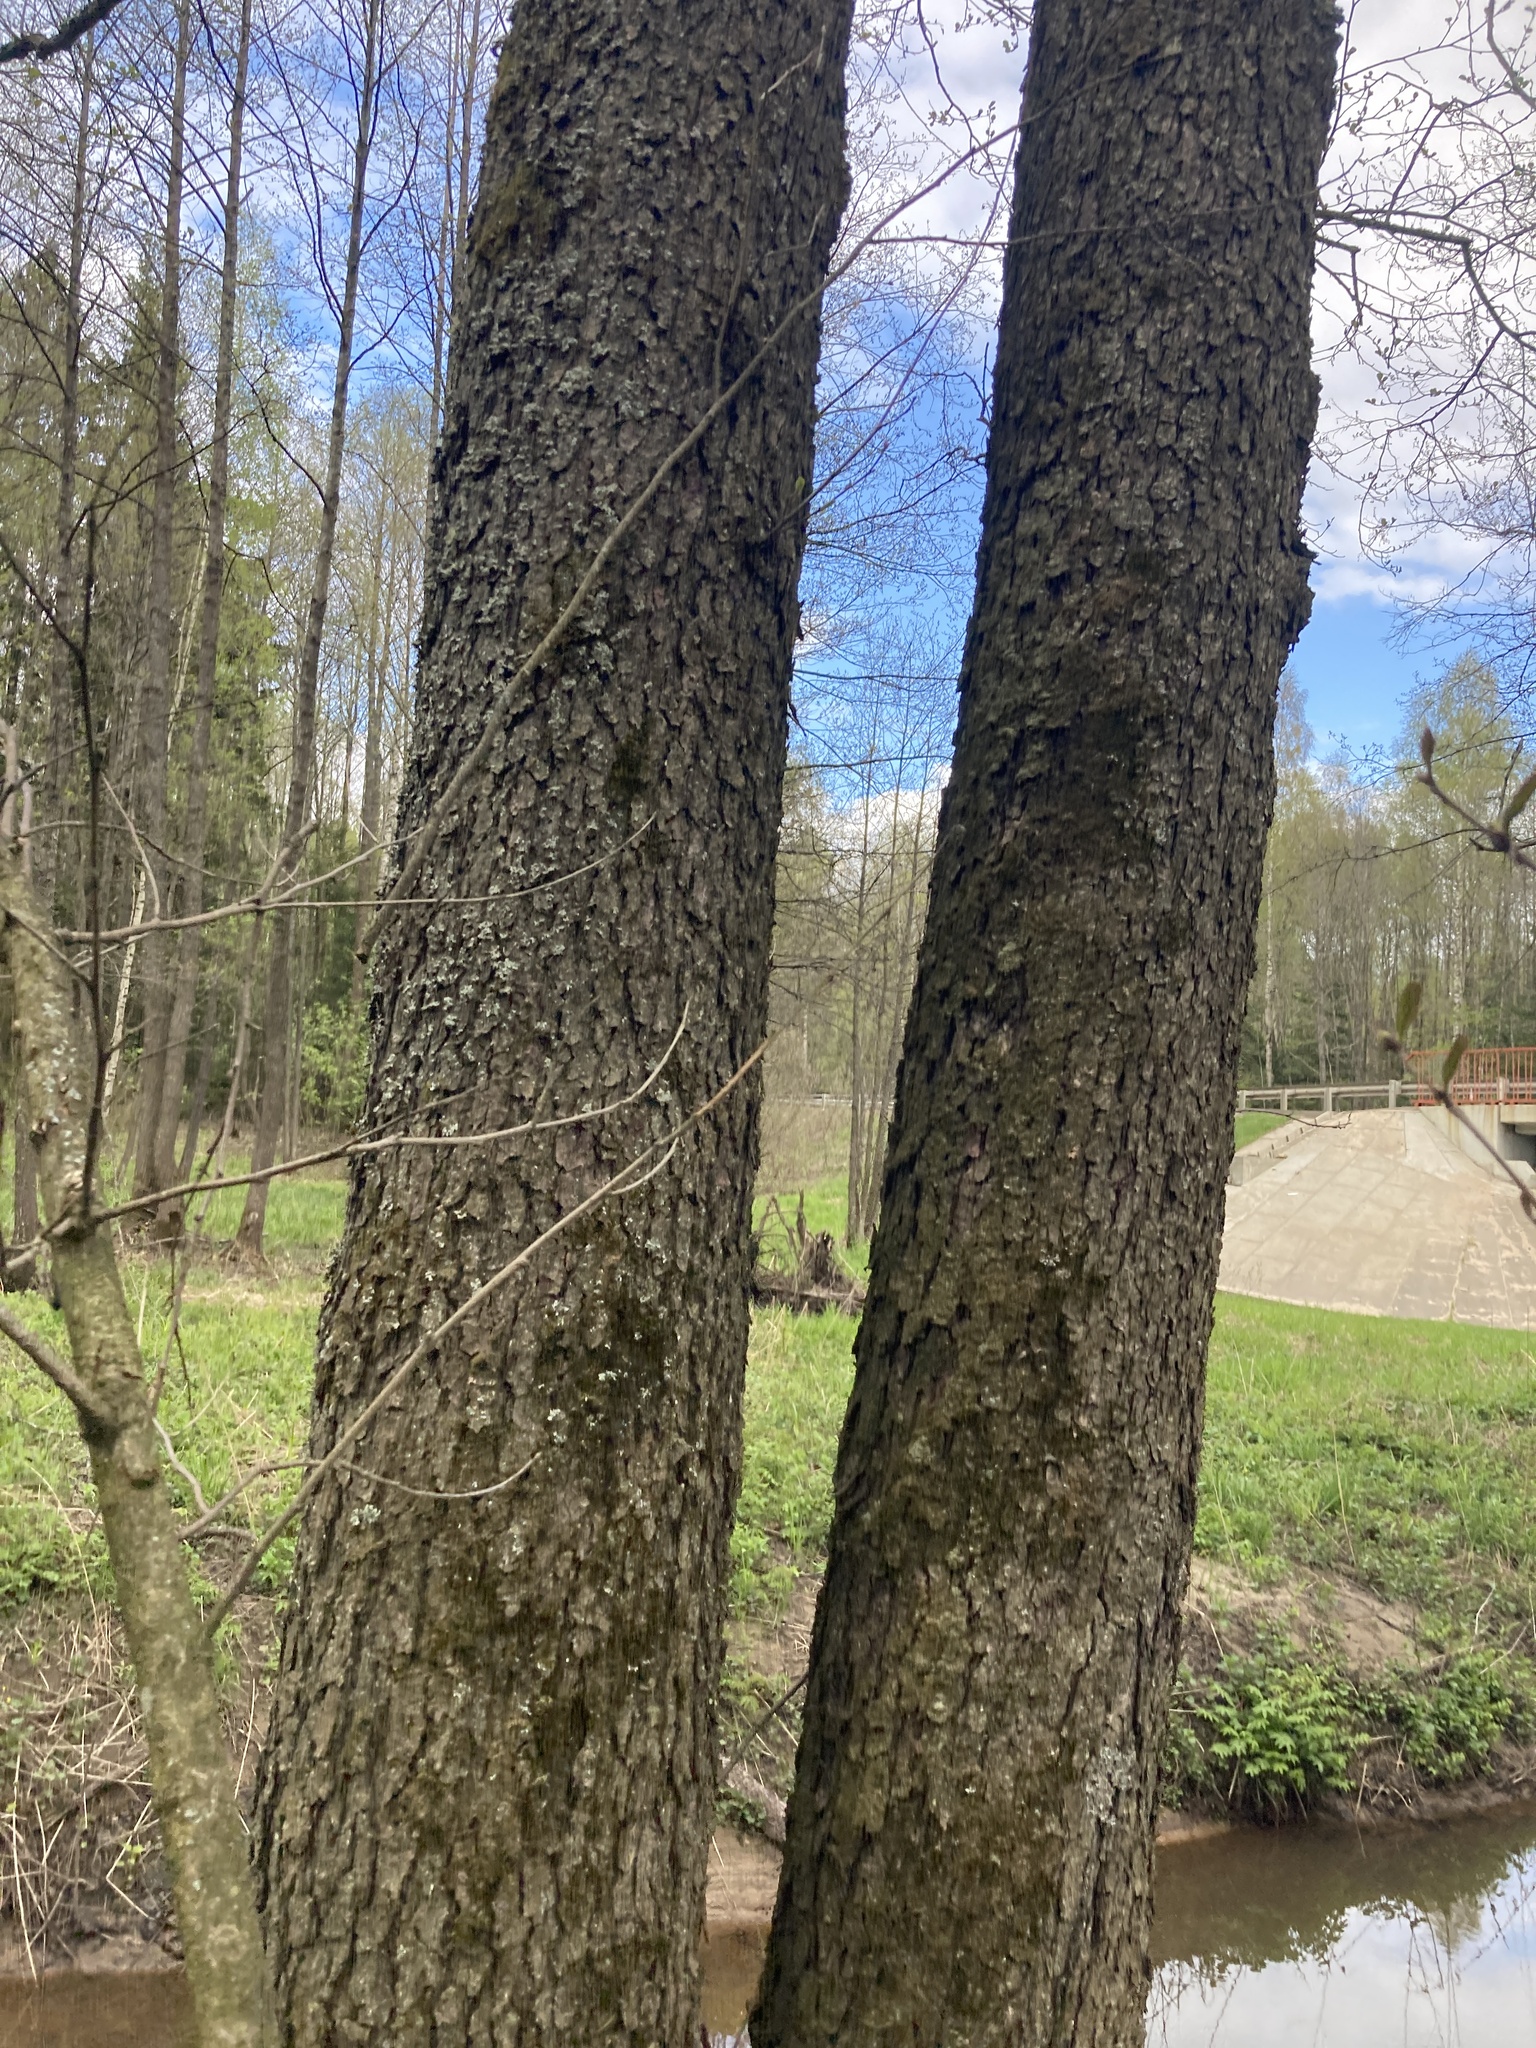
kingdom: Plantae
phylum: Tracheophyta
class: Magnoliopsida
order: Fagales
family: Betulaceae
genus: Alnus
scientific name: Alnus glutinosa
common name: Black alder
